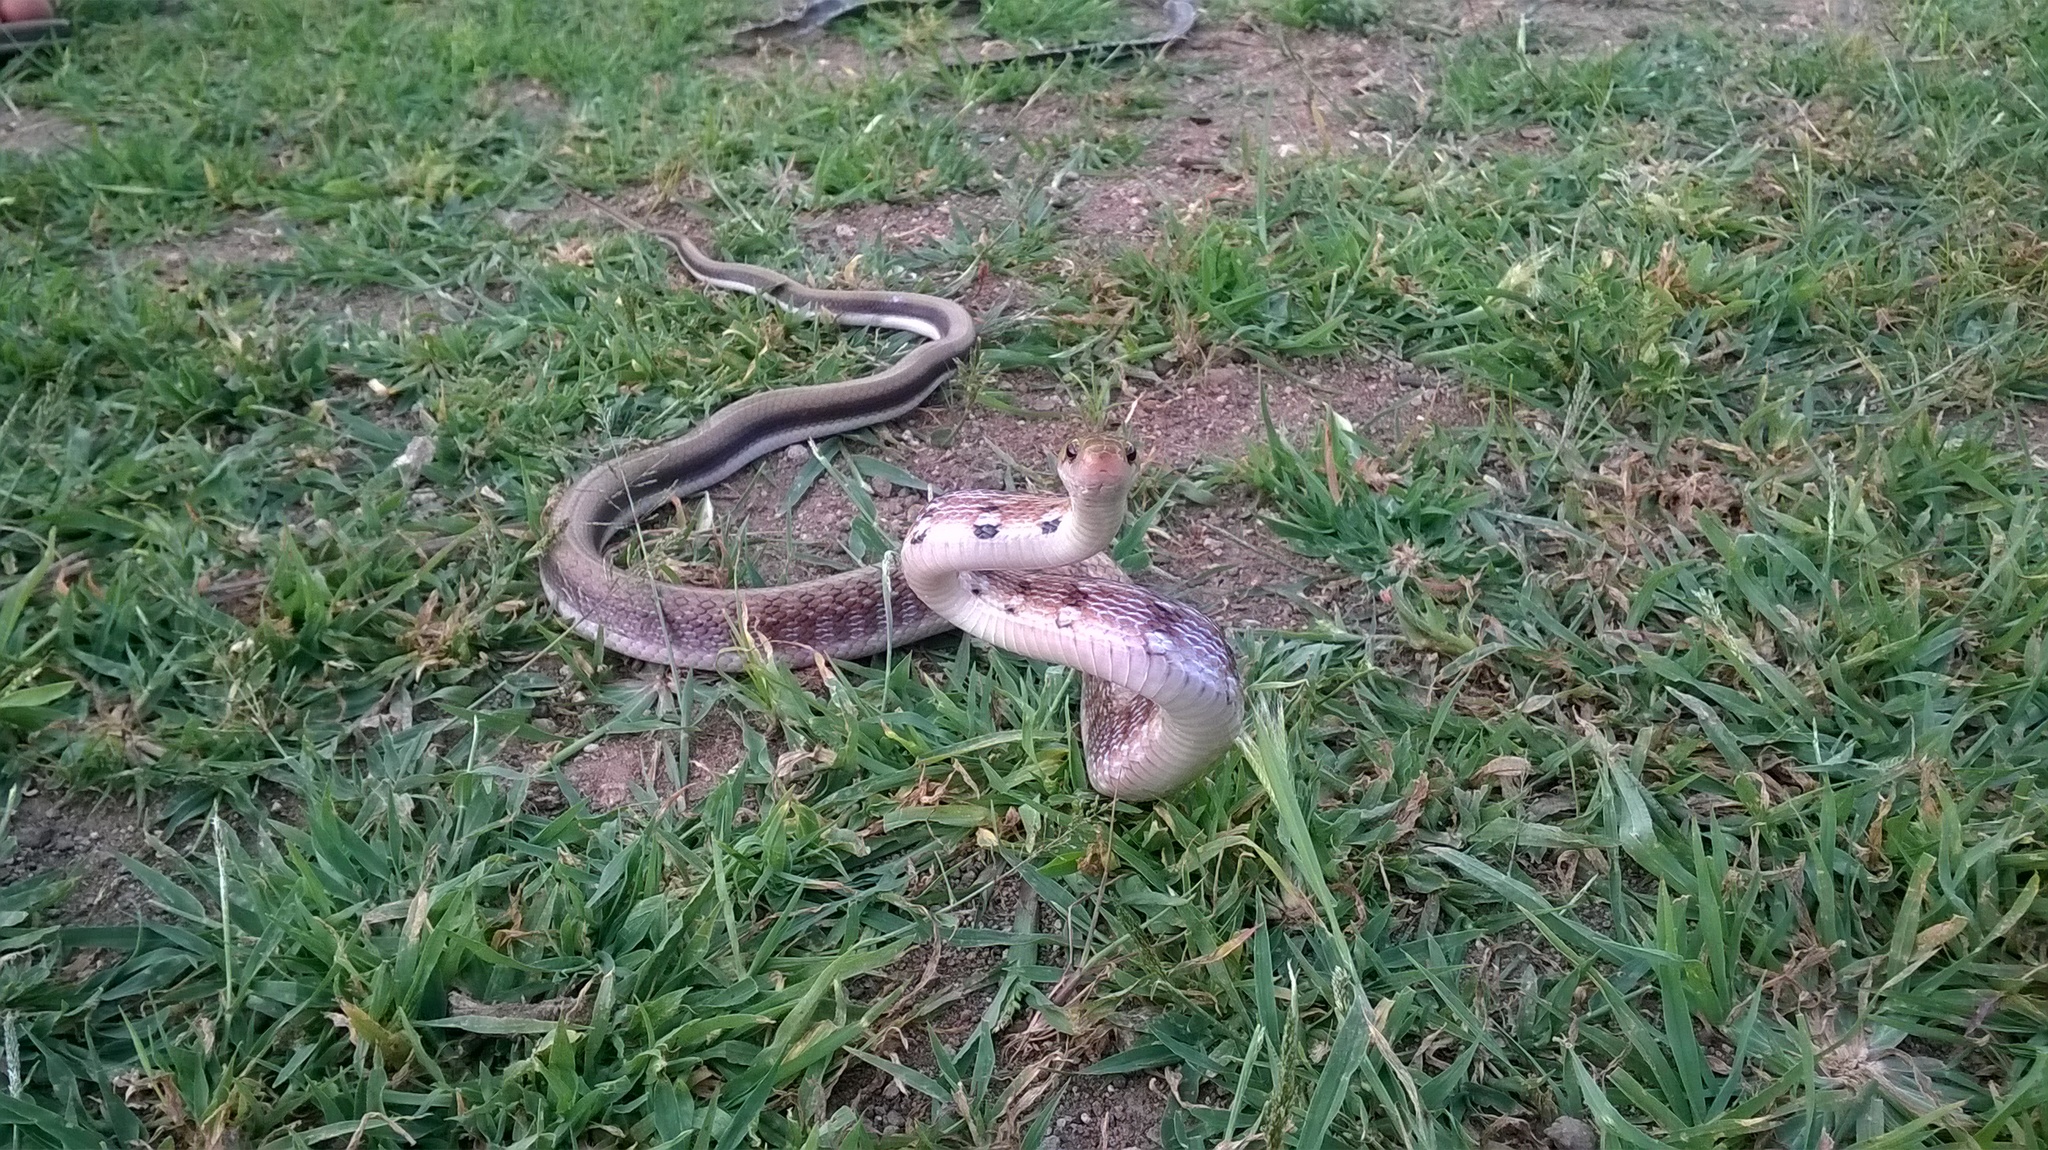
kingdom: Animalia
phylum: Chordata
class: Squamata
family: Colubridae
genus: Coelognathus
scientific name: Coelognathus helena
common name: Trinket snake
